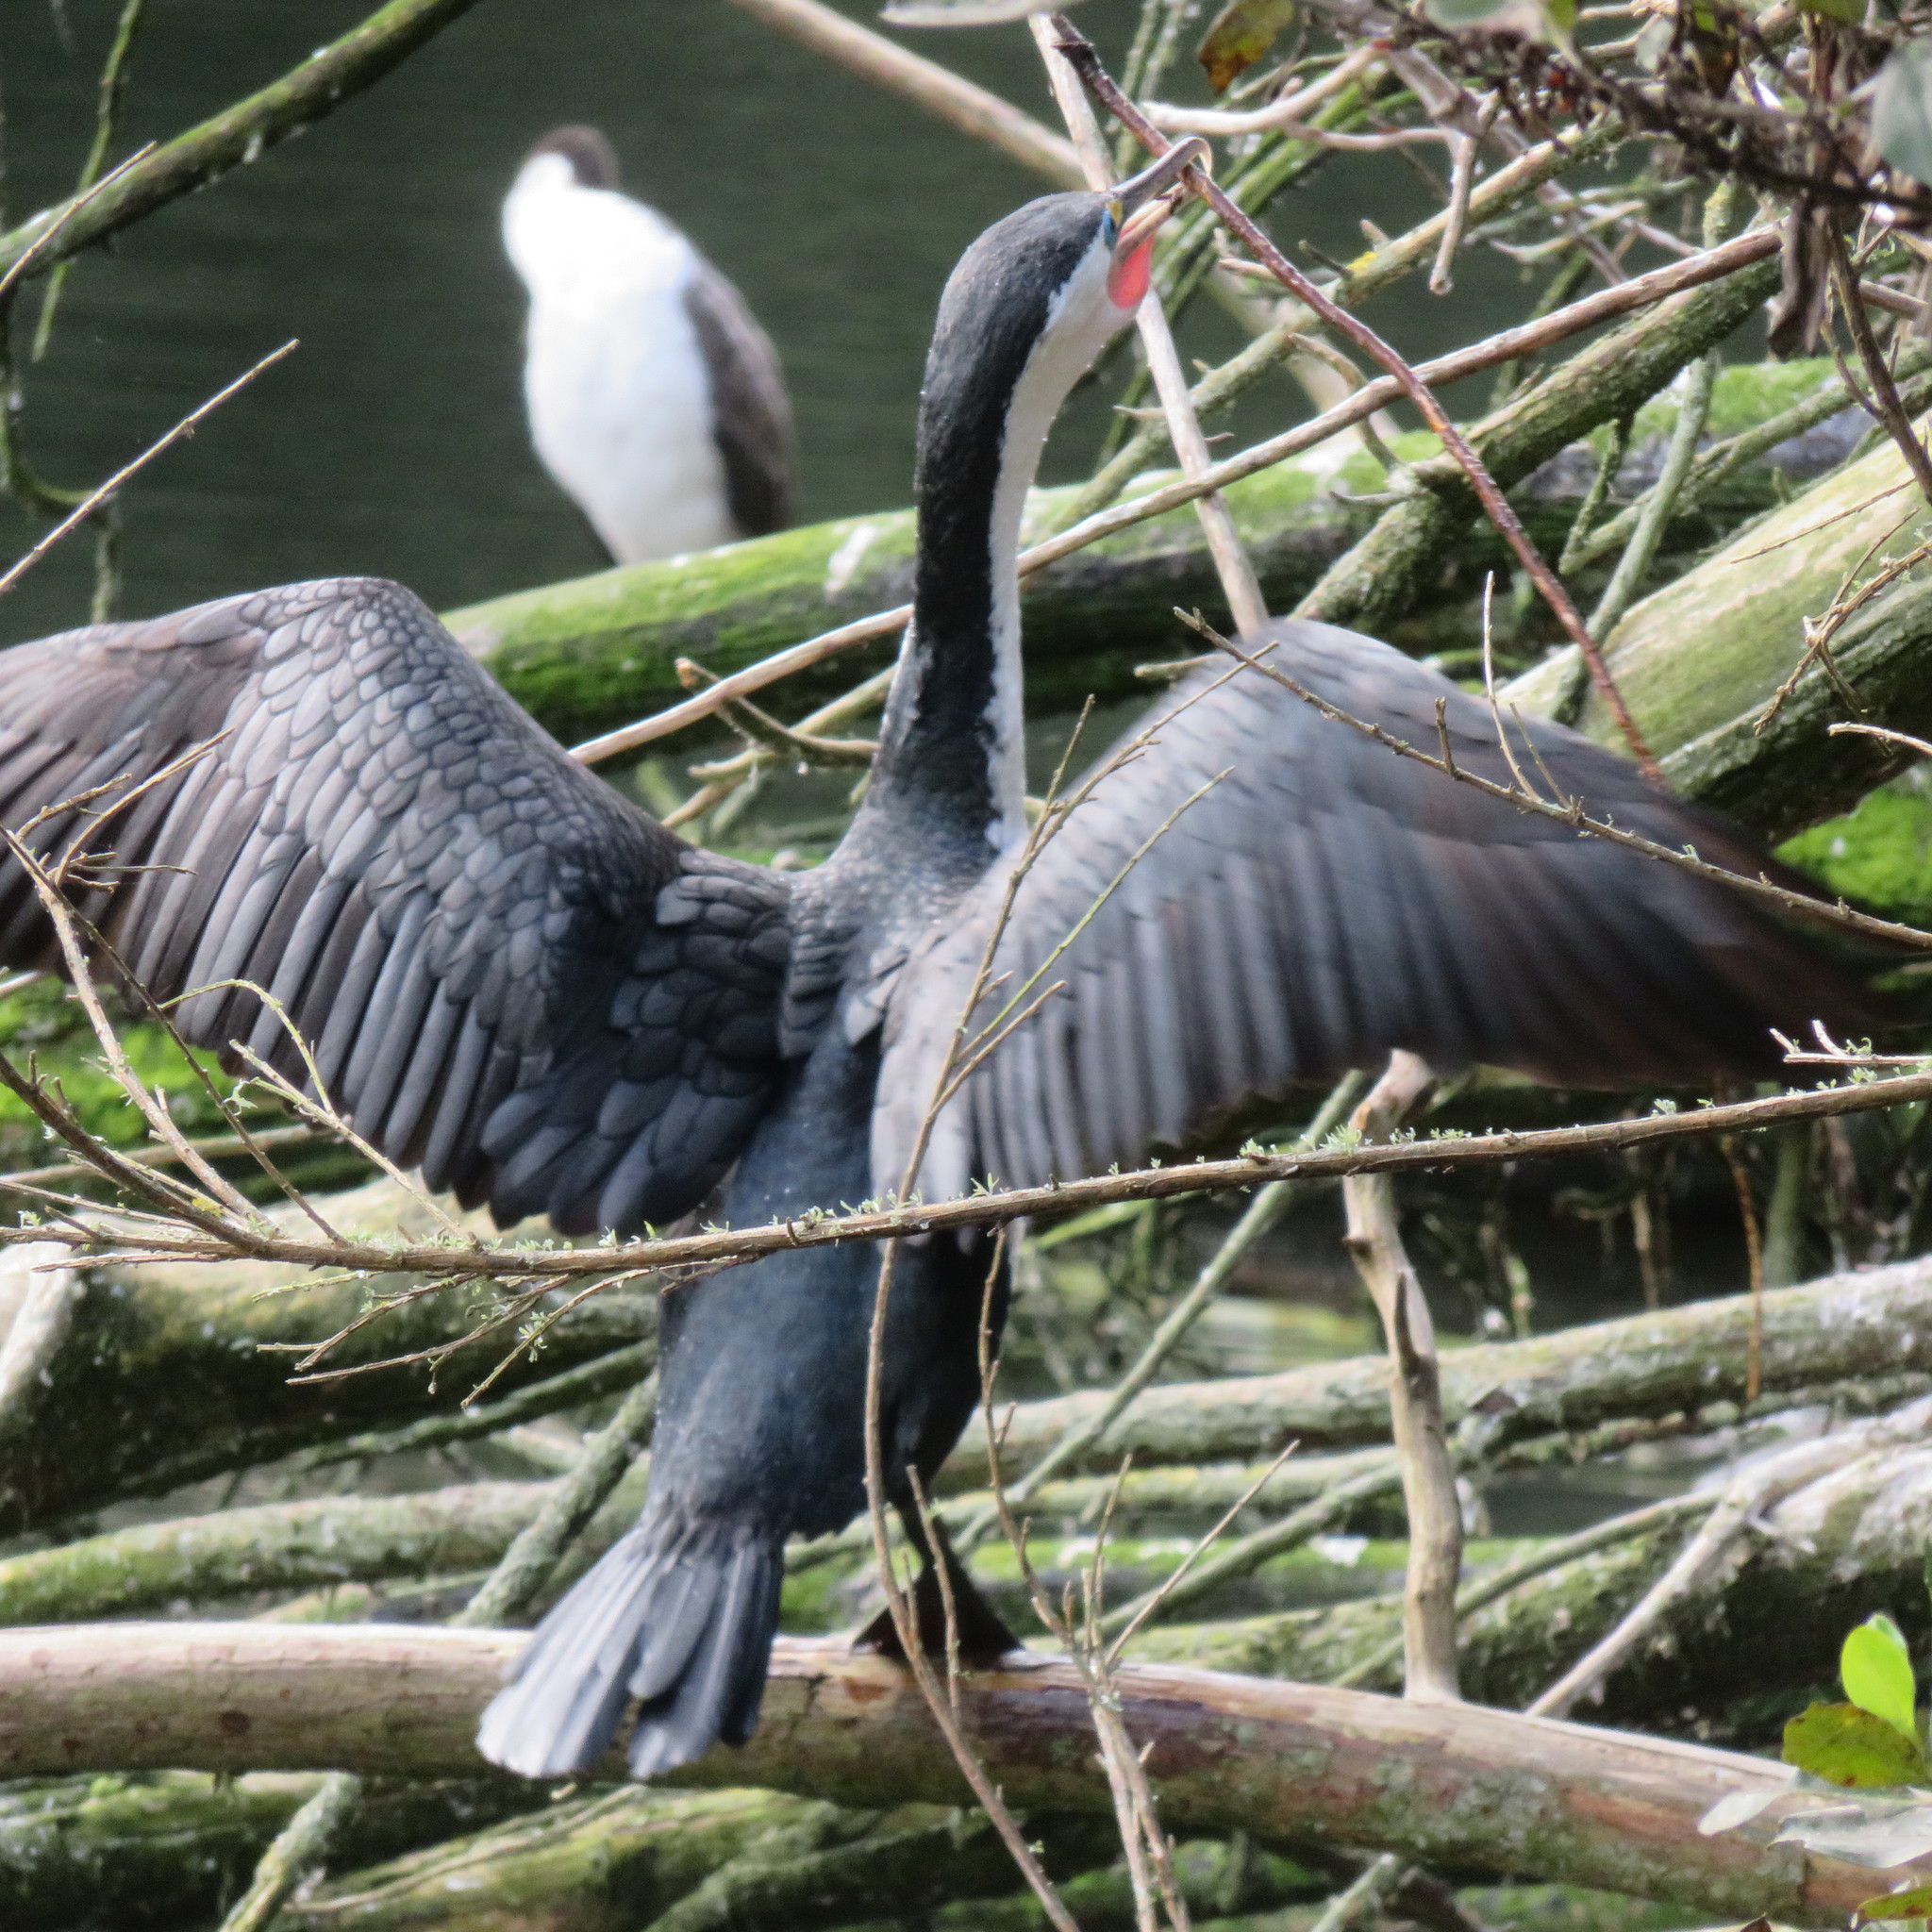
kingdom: Animalia
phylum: Chordata
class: Aves
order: Suliformes
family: Phalacrocoracidae
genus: Phalacrocorax
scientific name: Phalacrocorax varius
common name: Pied cormorant
